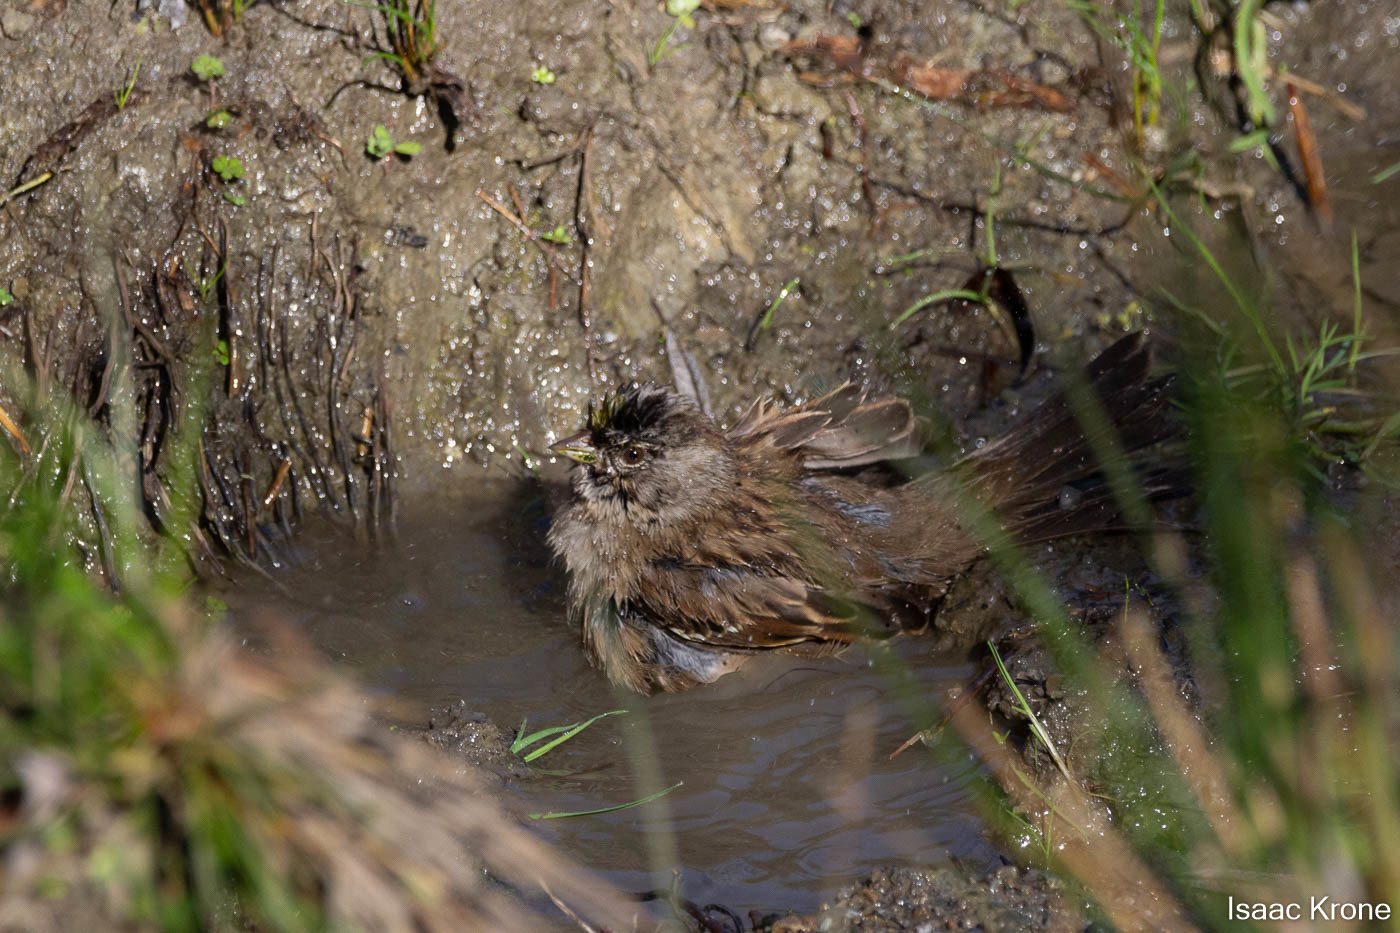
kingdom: Animalia
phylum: Chordata
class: Aves
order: Passeriformes
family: Passerellidae
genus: Zonotrichia
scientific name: Zonotrichia atricapilla
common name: Golden-crowned sparrow
